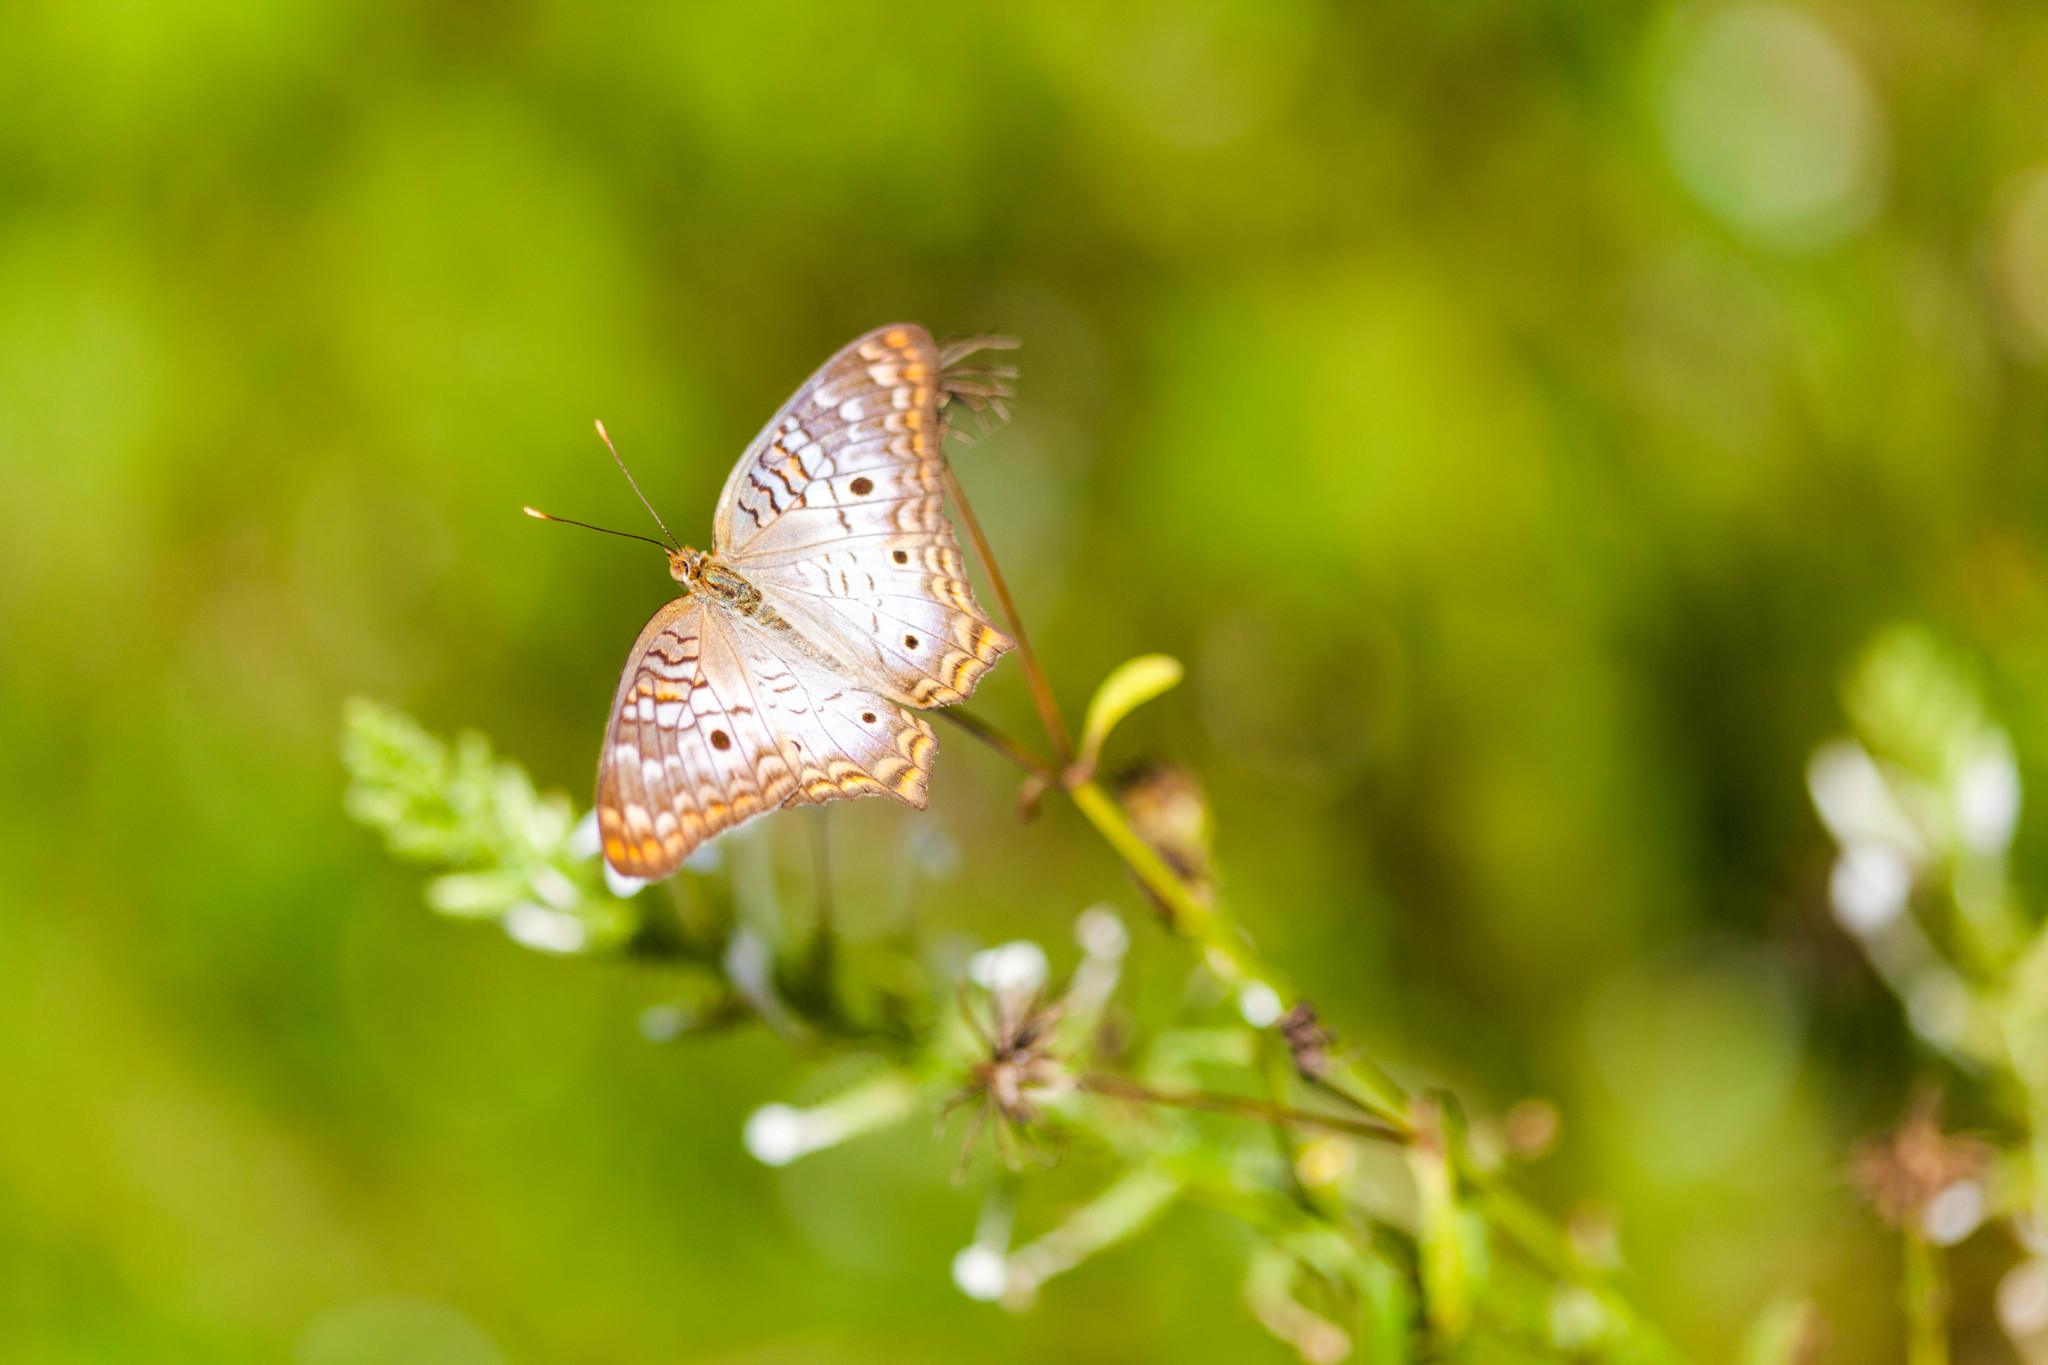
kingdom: Animalia
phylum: Arthropoda
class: Insecta
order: Lepidoptera
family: Nymphalidae
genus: Anartia
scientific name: Anartia jatrophae
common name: White peacock
